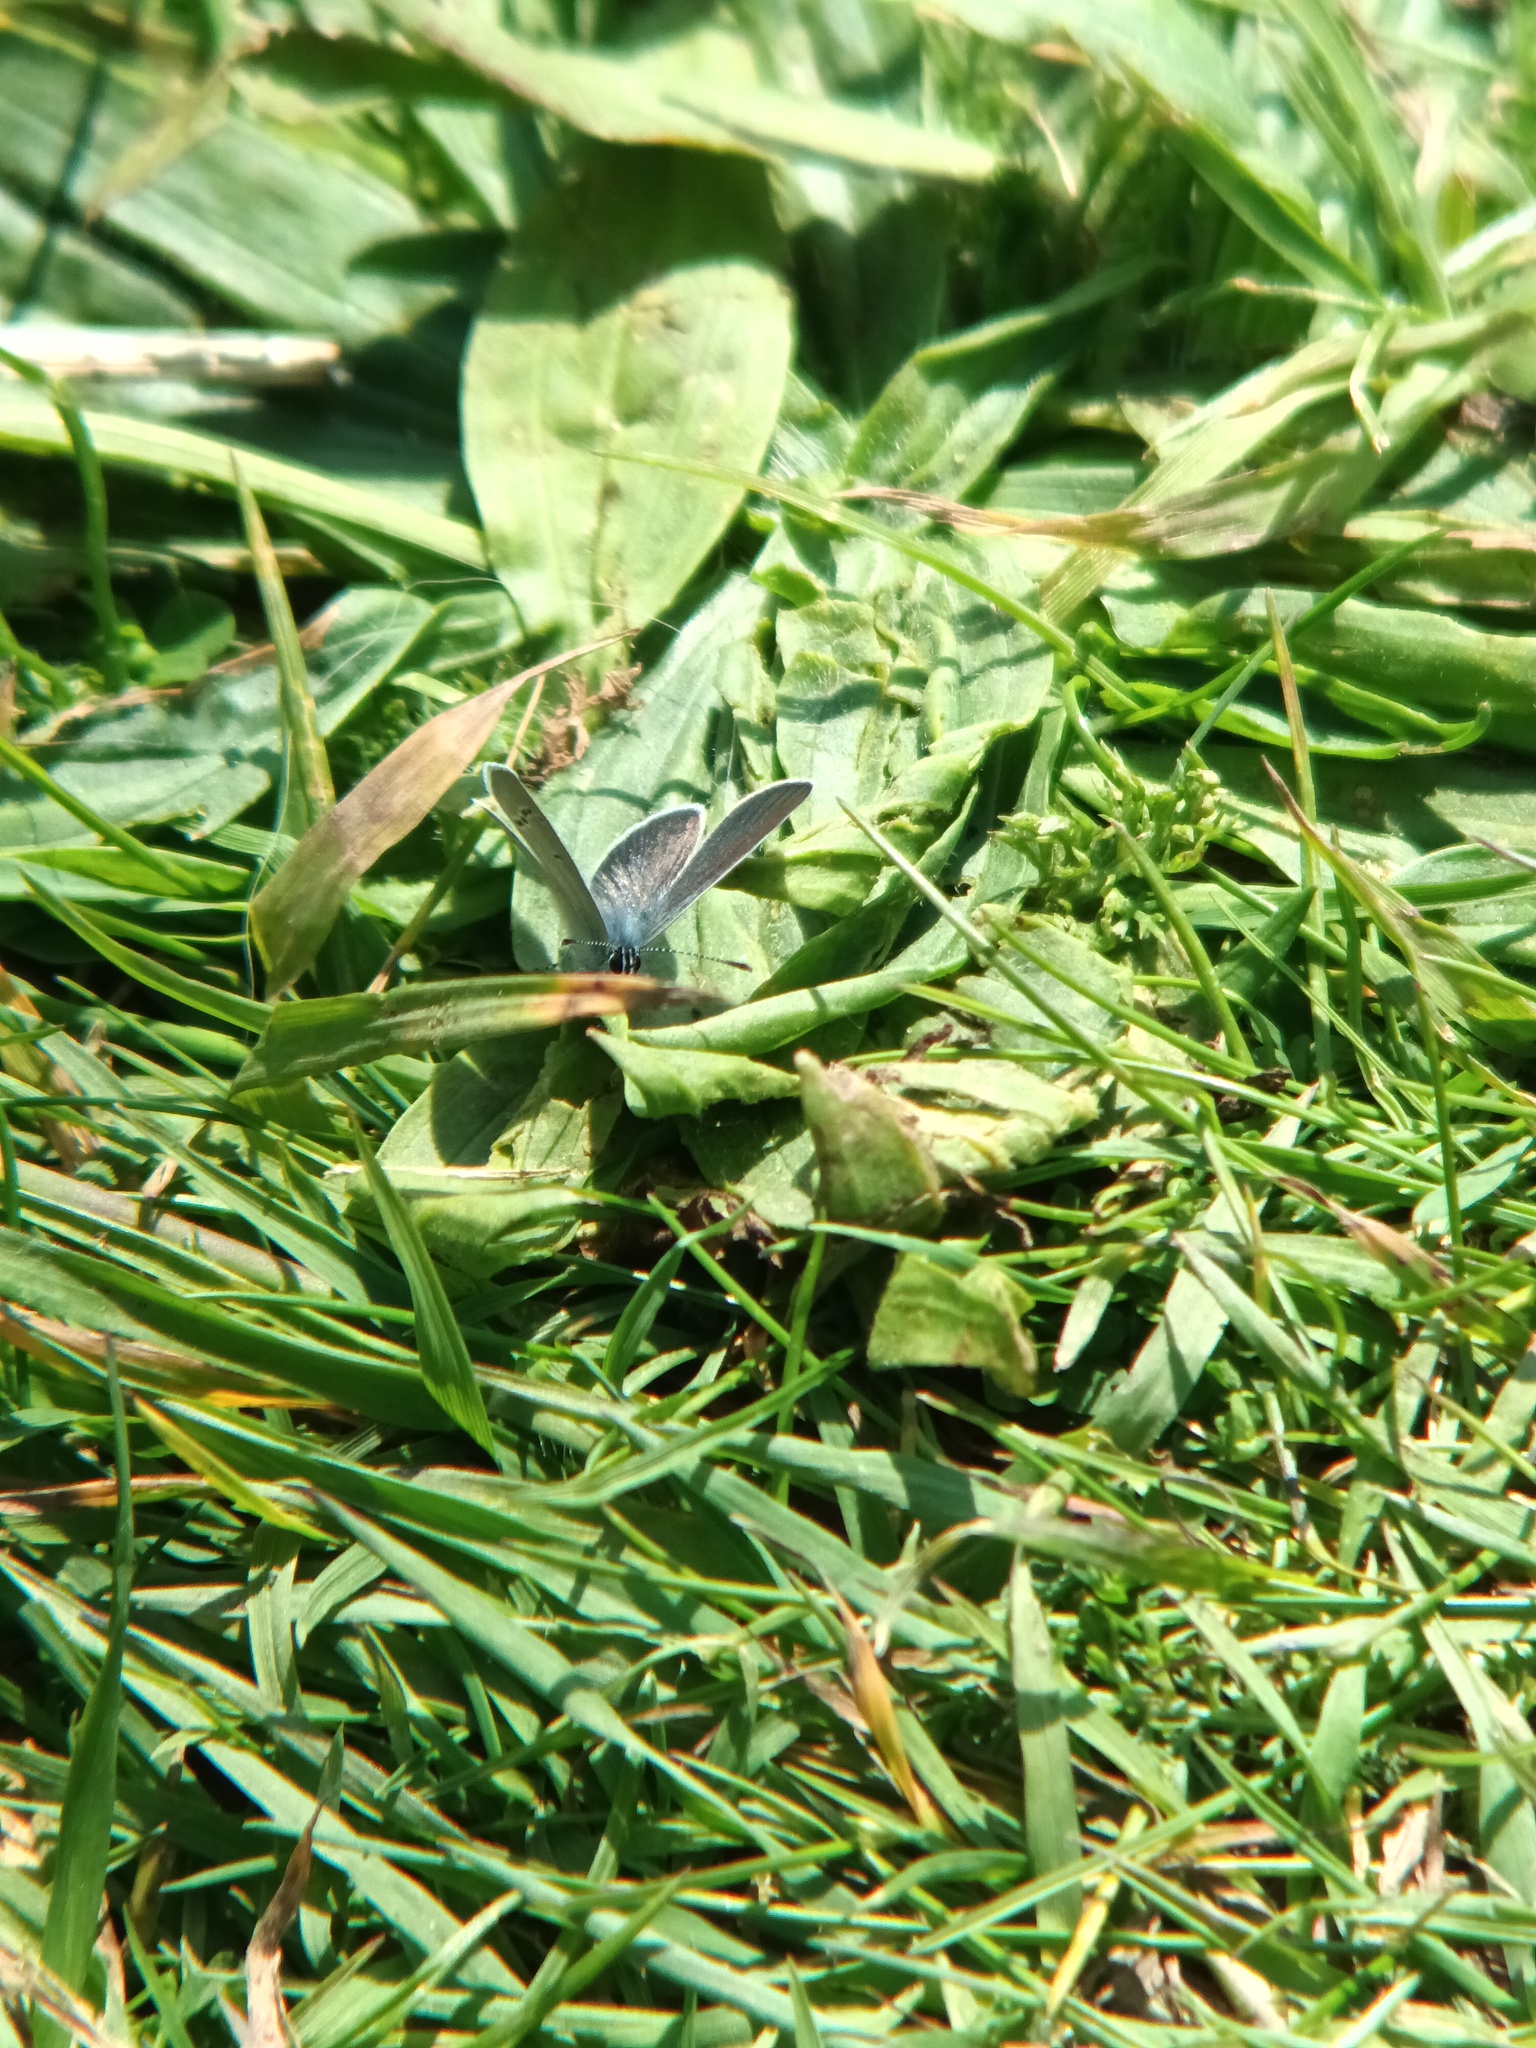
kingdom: Animalia
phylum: Arthropoda
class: Insecta
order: Lepidoptera
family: Lycaenidae
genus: Cupido
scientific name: Cupido minimus
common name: Small blue
